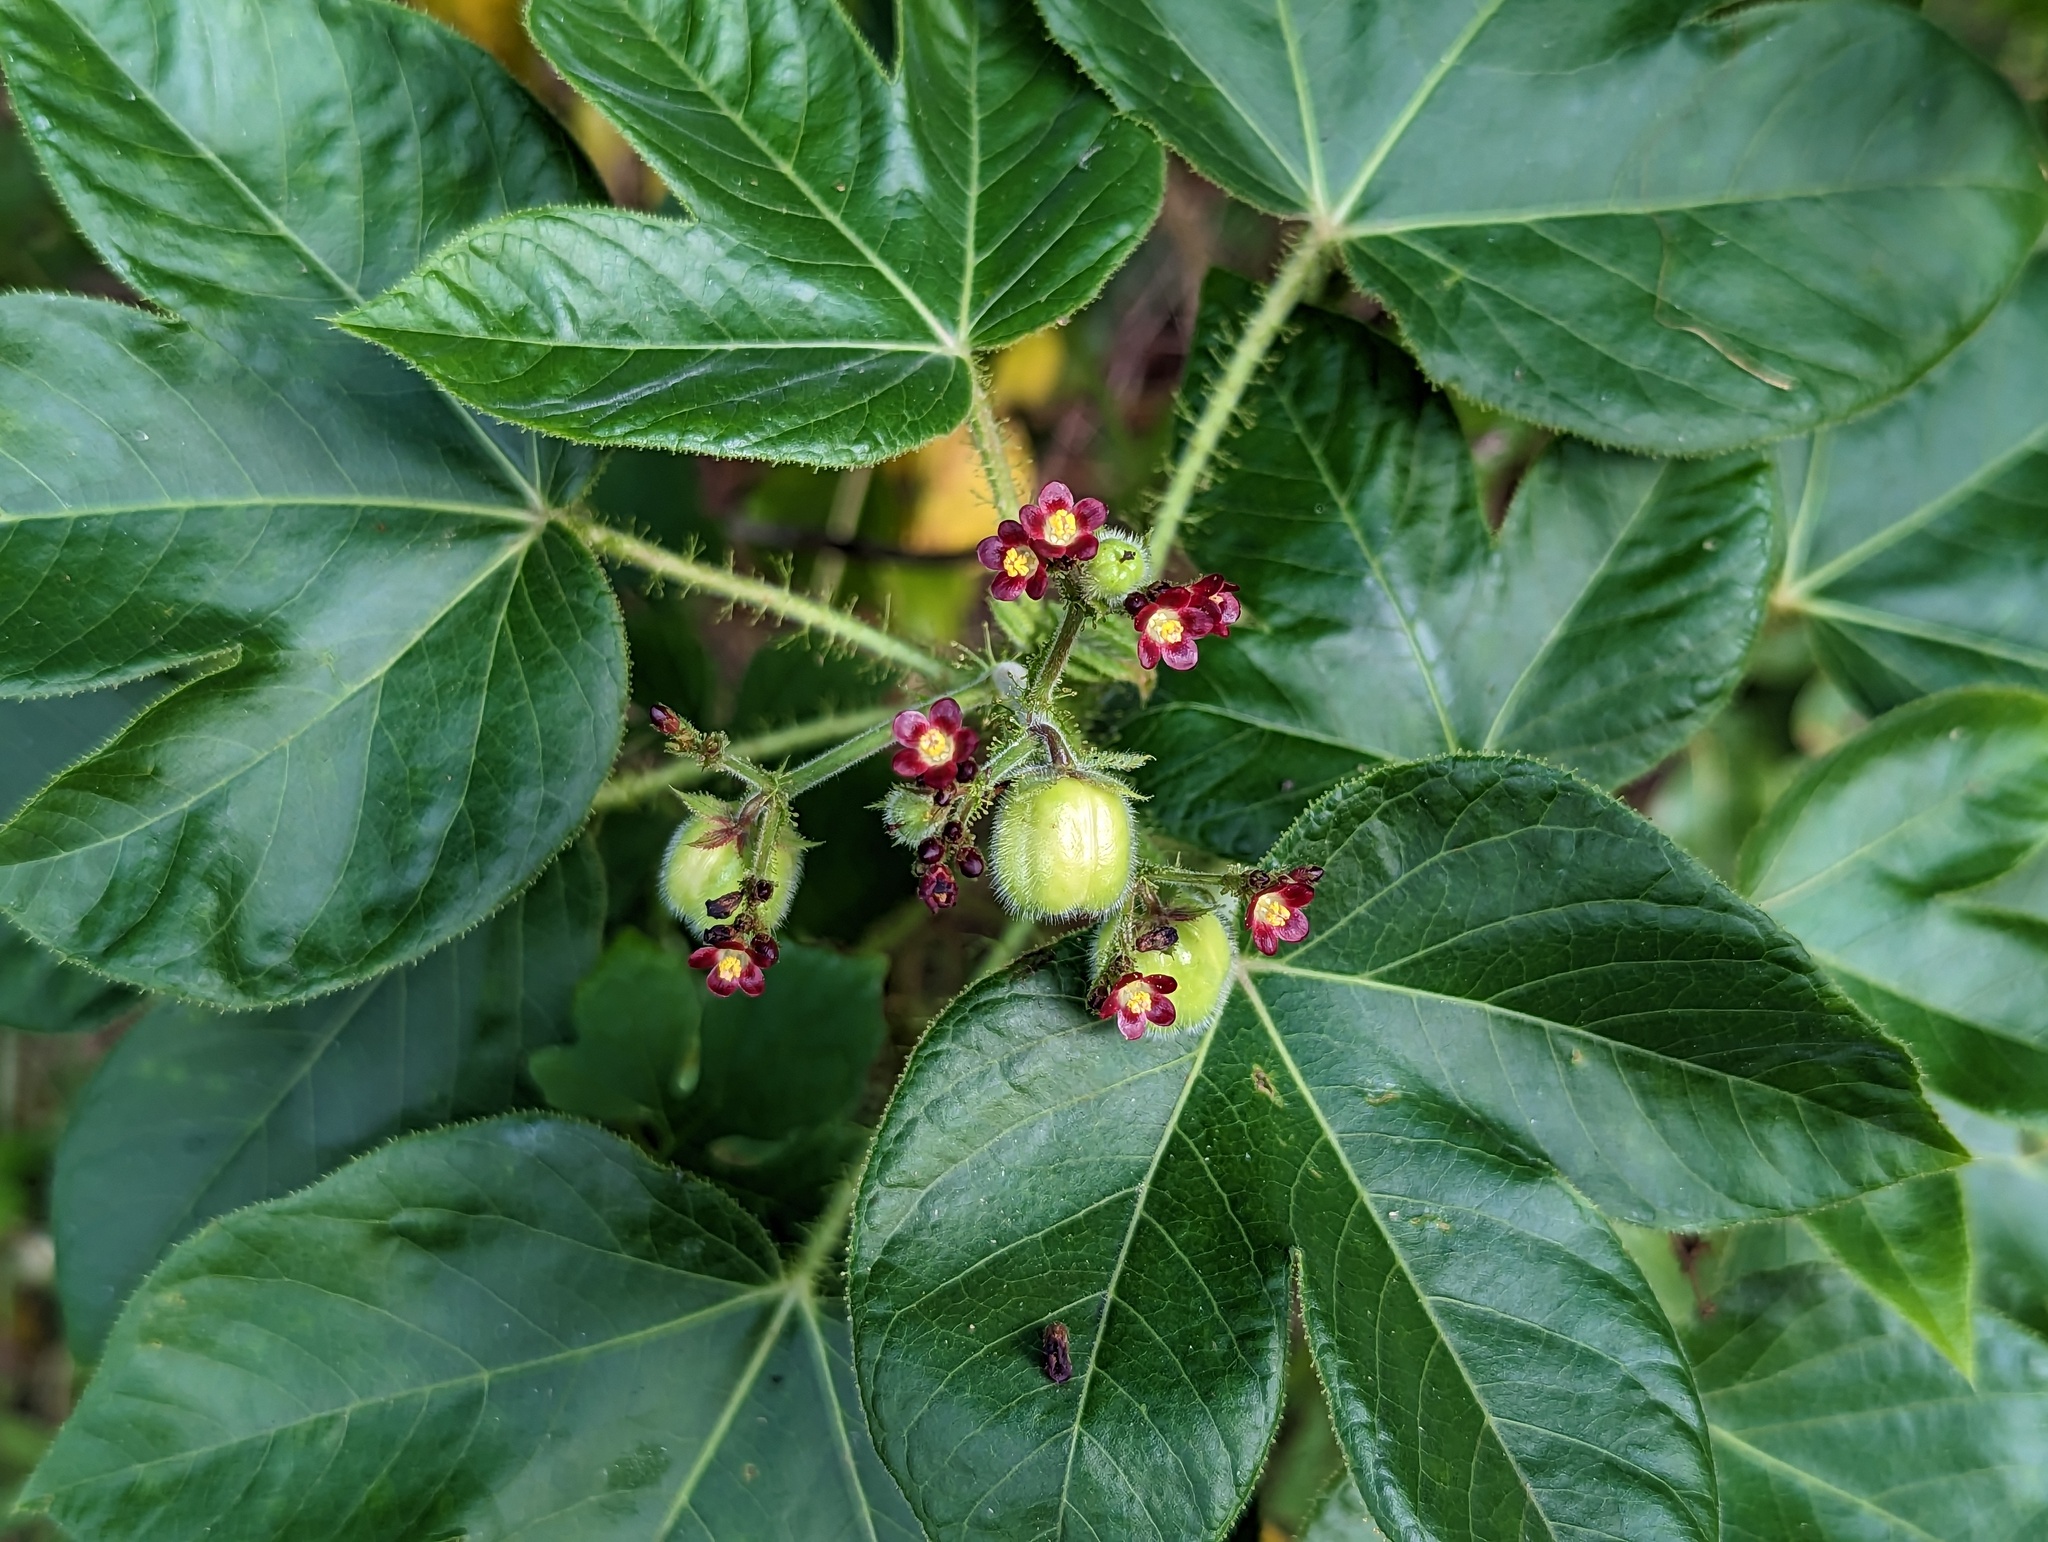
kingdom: Plantae
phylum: Tracheophyta
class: Magnoliopsida
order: Malpighiales
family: Euphorbiaceae
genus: Jatropha
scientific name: Jatropha gossypiifolia
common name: Bellyache bush
